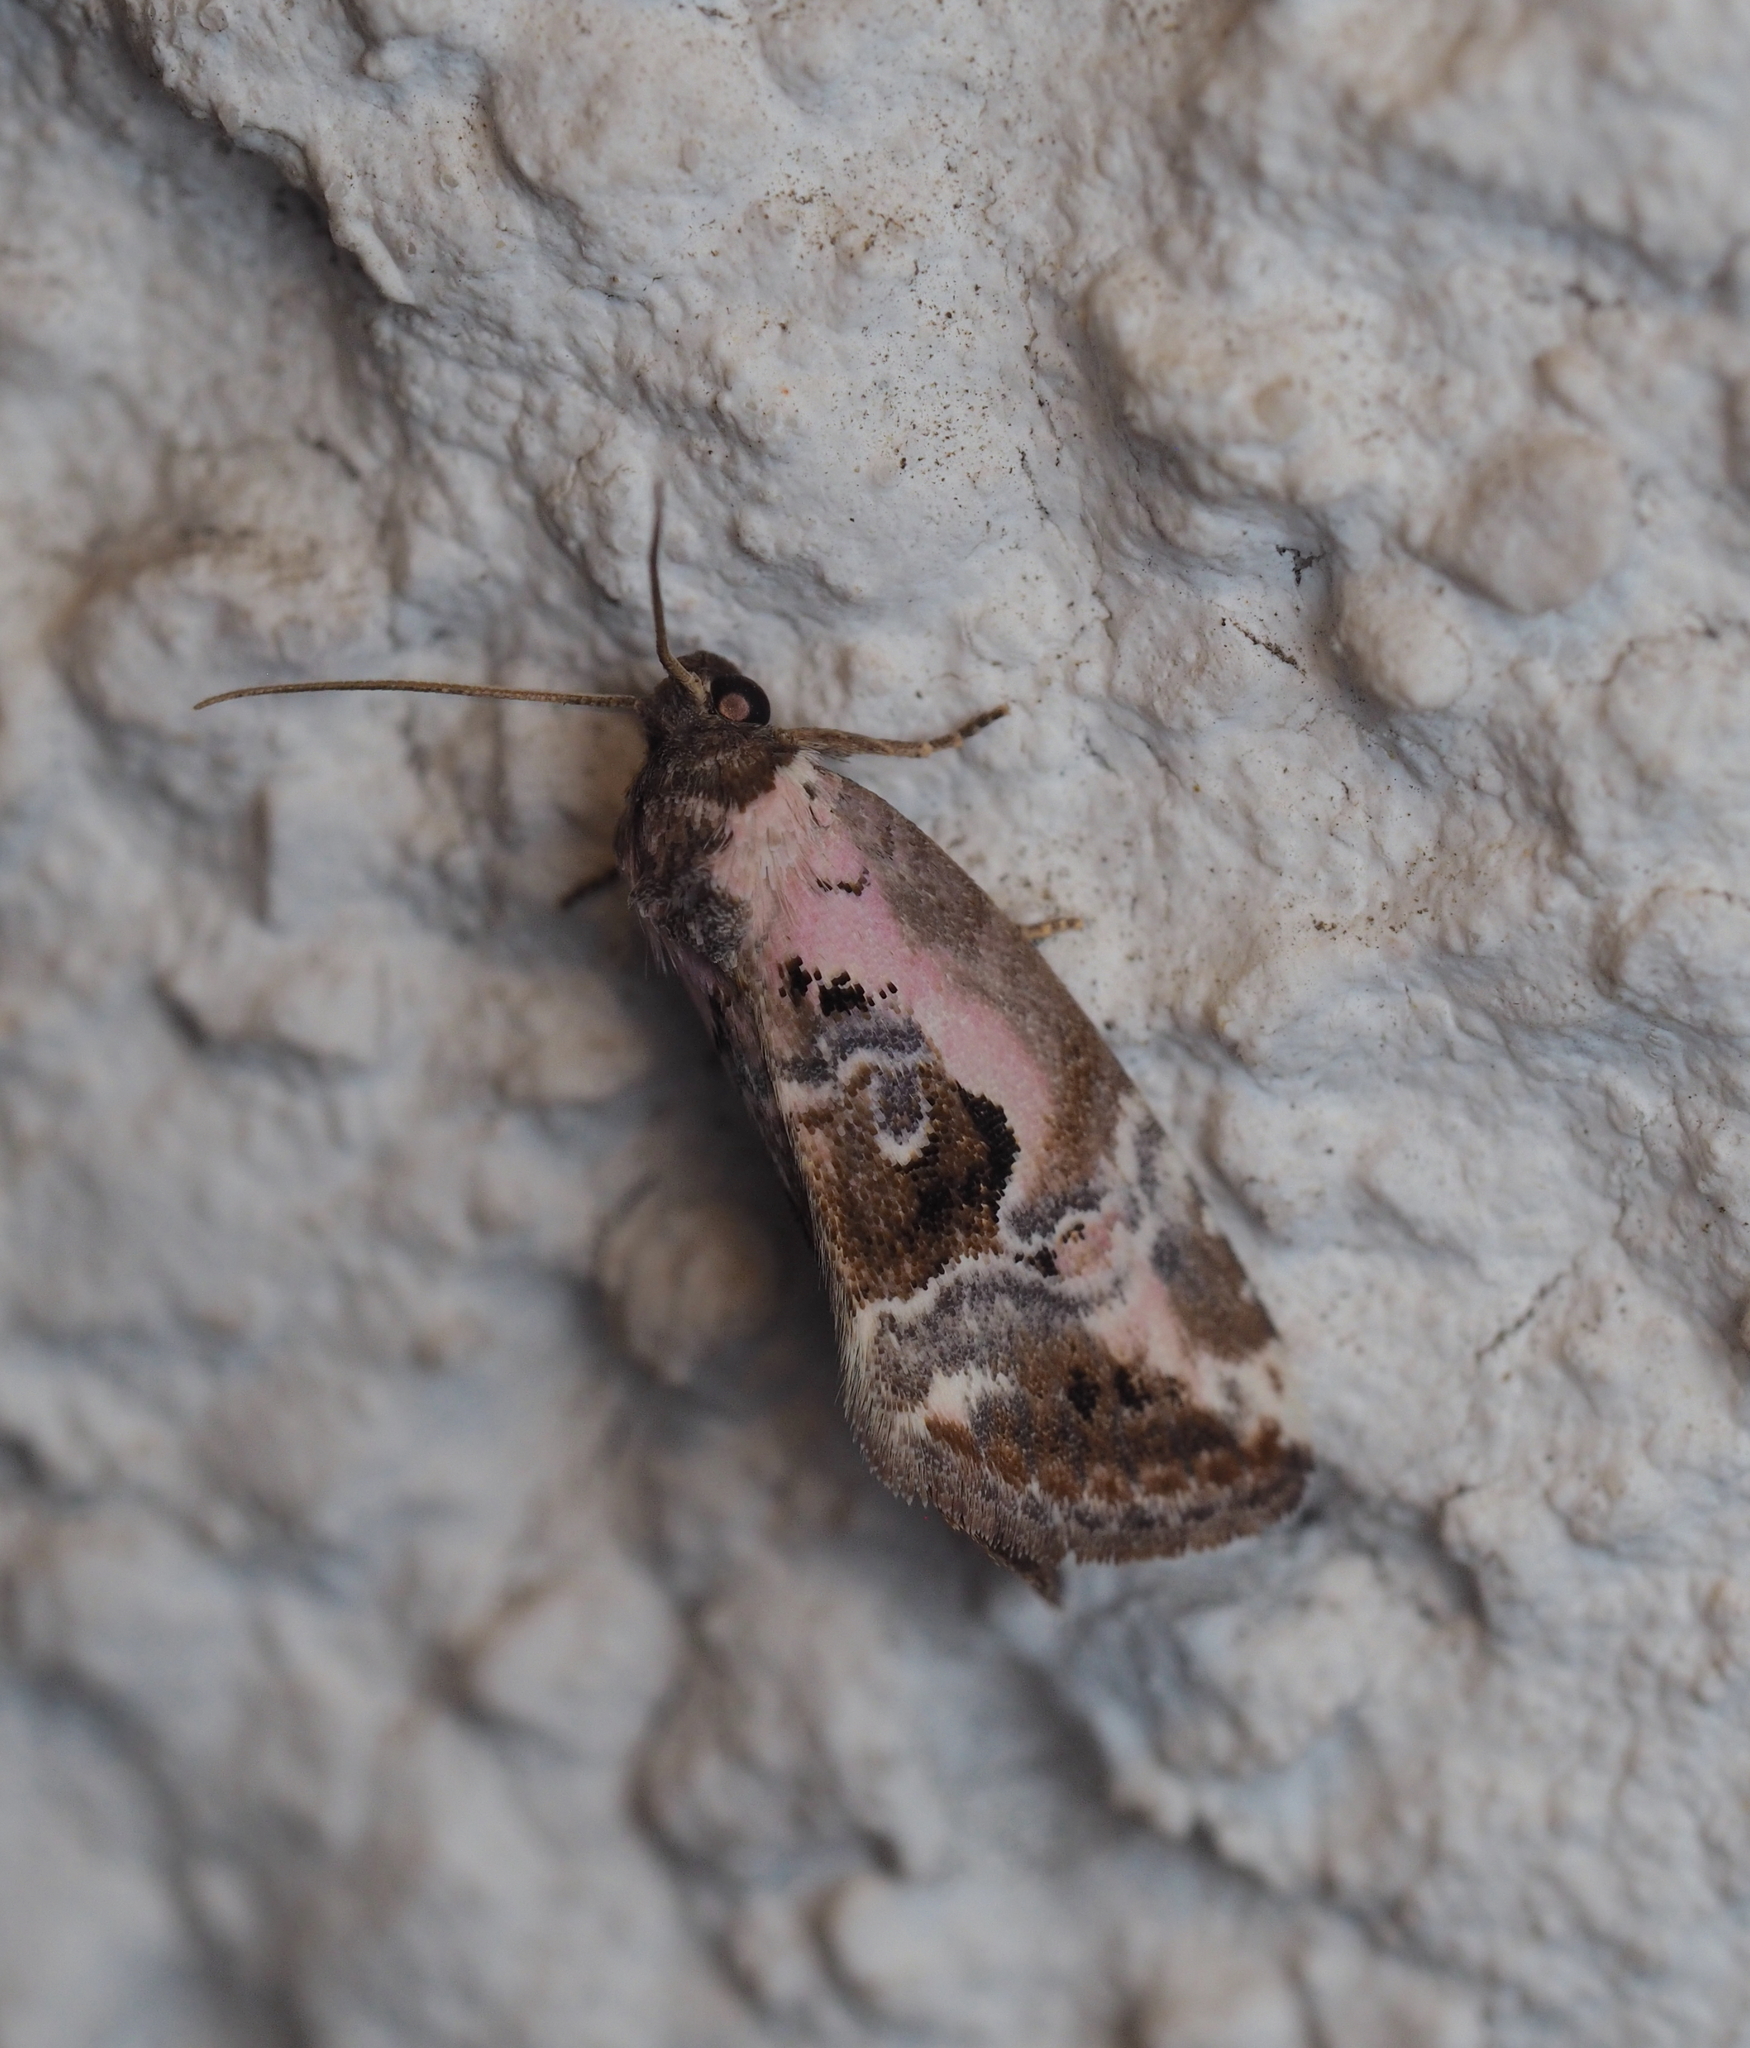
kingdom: Animalia
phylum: Arthropoda
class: Insecta
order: Lepidoptera
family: Noctuidae
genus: Elaphria
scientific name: Elaphria venustula
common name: Rosy marbled
